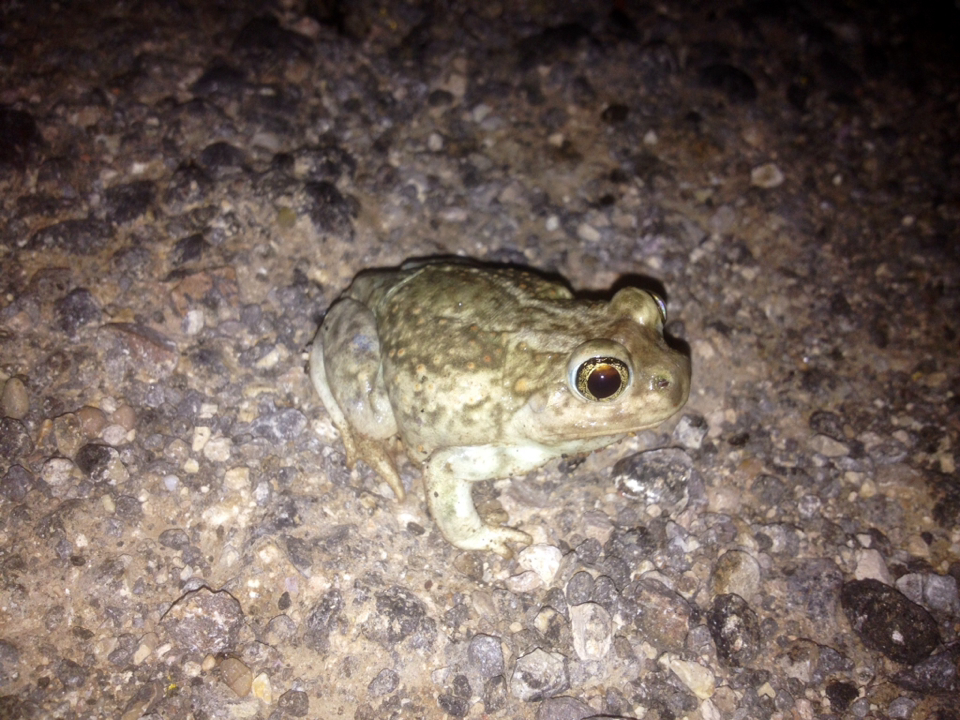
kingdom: Animalia
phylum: Chordata
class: Amphibia
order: Anura
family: Scaphiopodidae
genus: Spea
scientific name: Spea bombifrons
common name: Plains spadefoot
